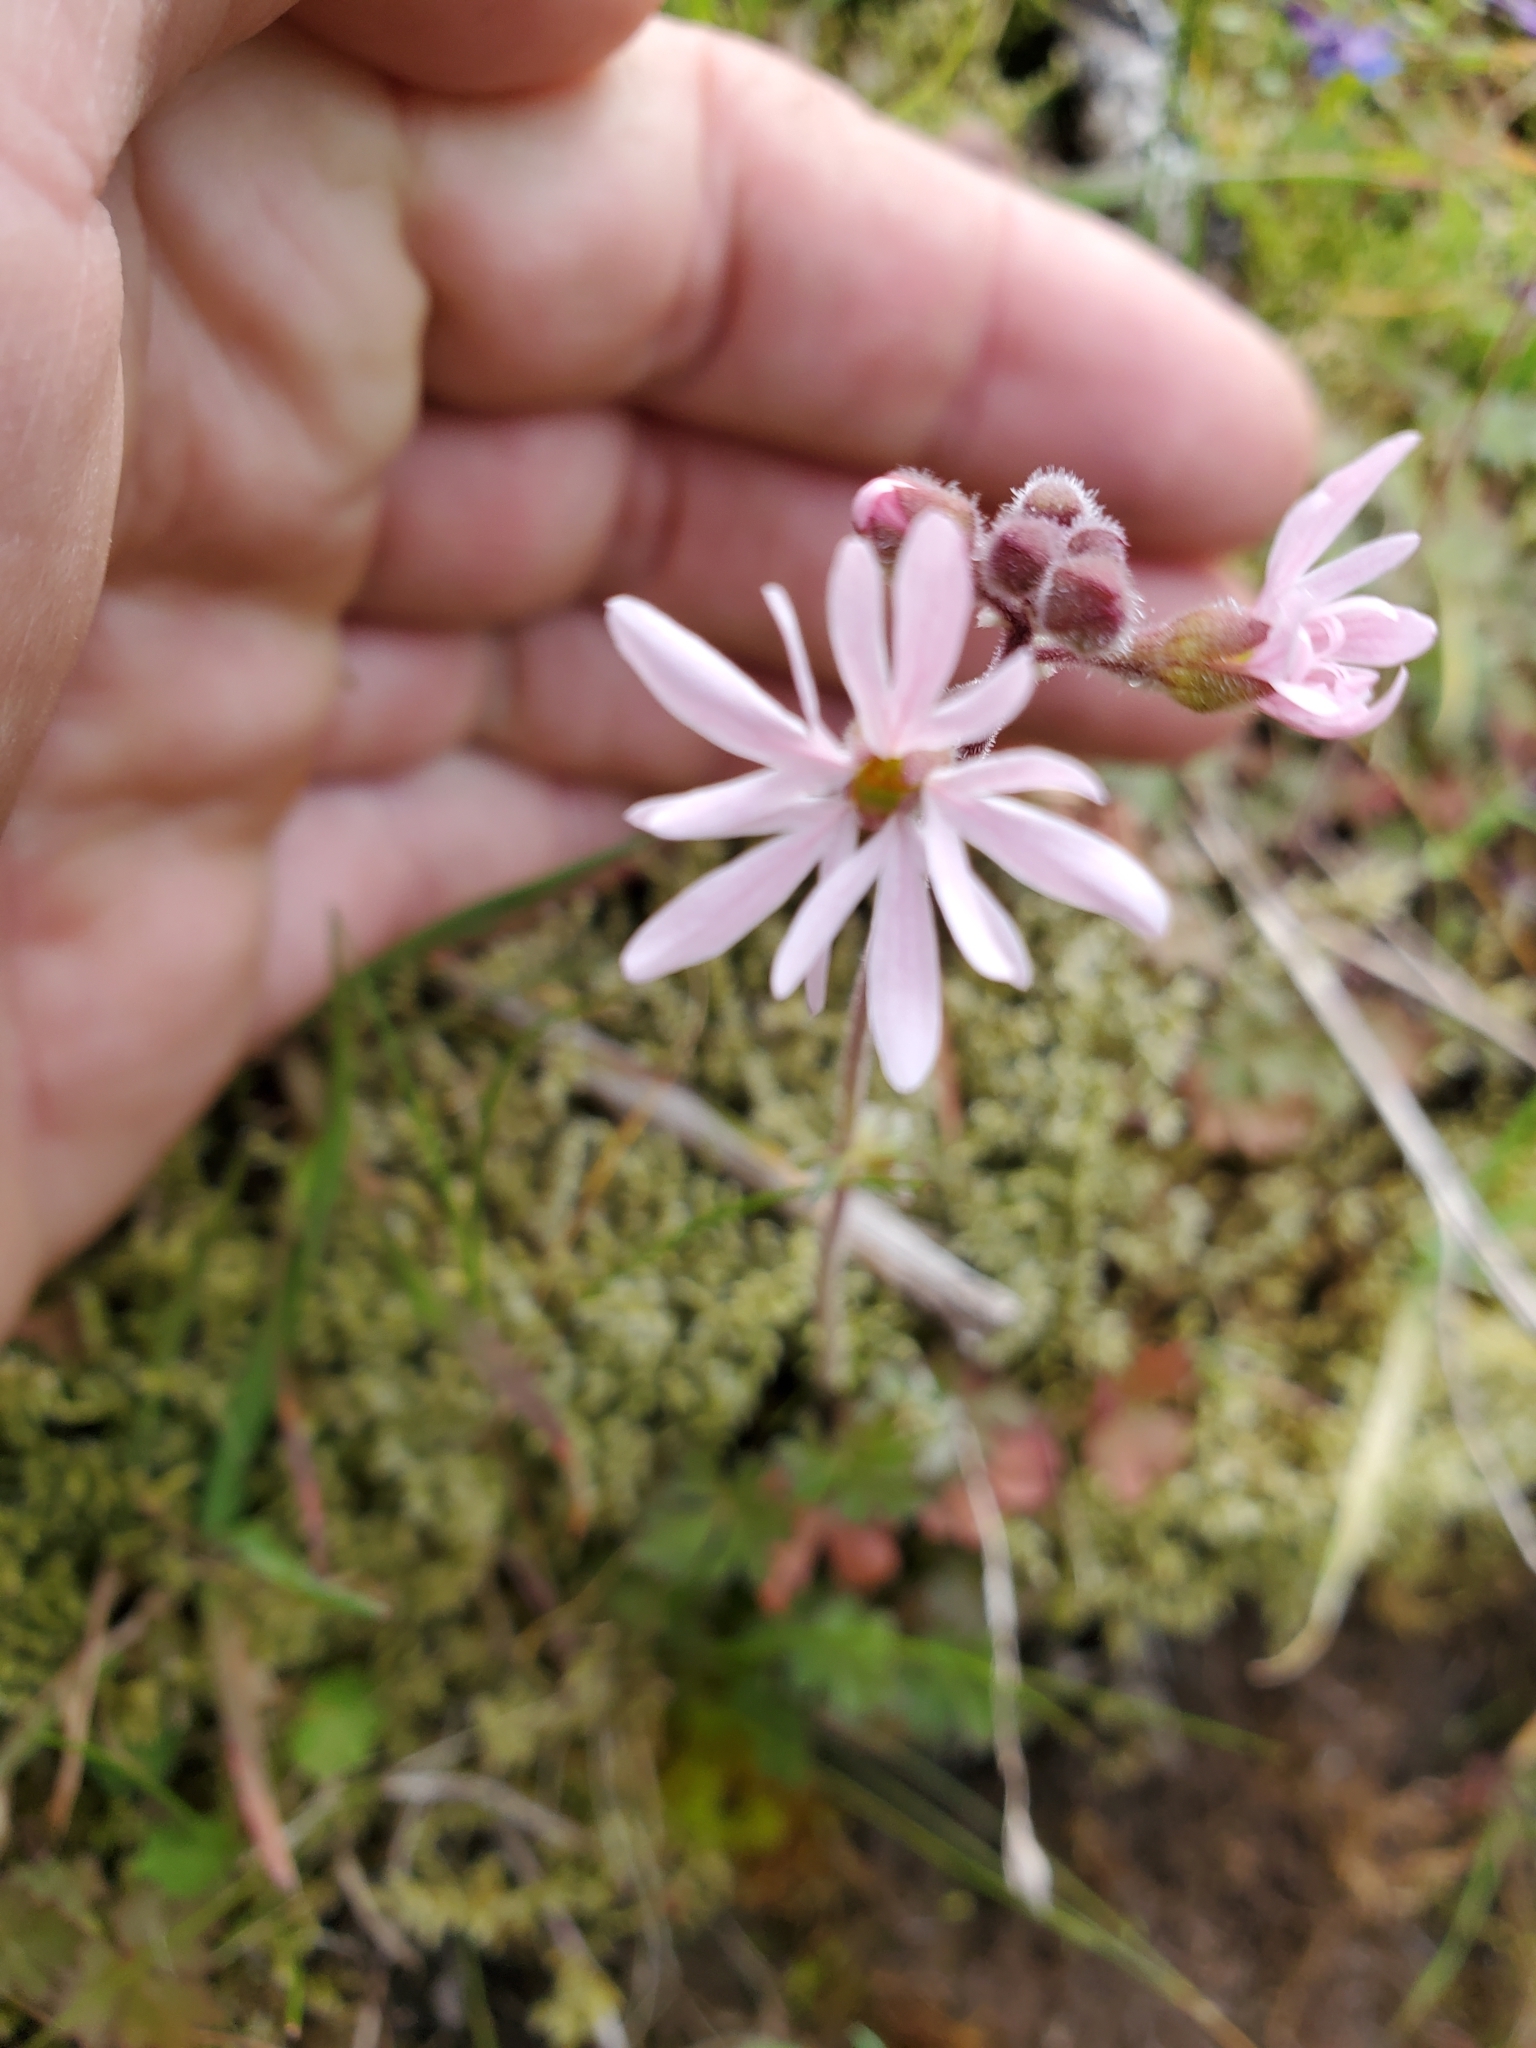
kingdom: Plantae
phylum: Tracheophyta
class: Magnoliopsida
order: Saxifragales
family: Saxifragaceae
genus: Lithophragma
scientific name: Lithophragma parviflorum
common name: Small-flowered fringe-cup
